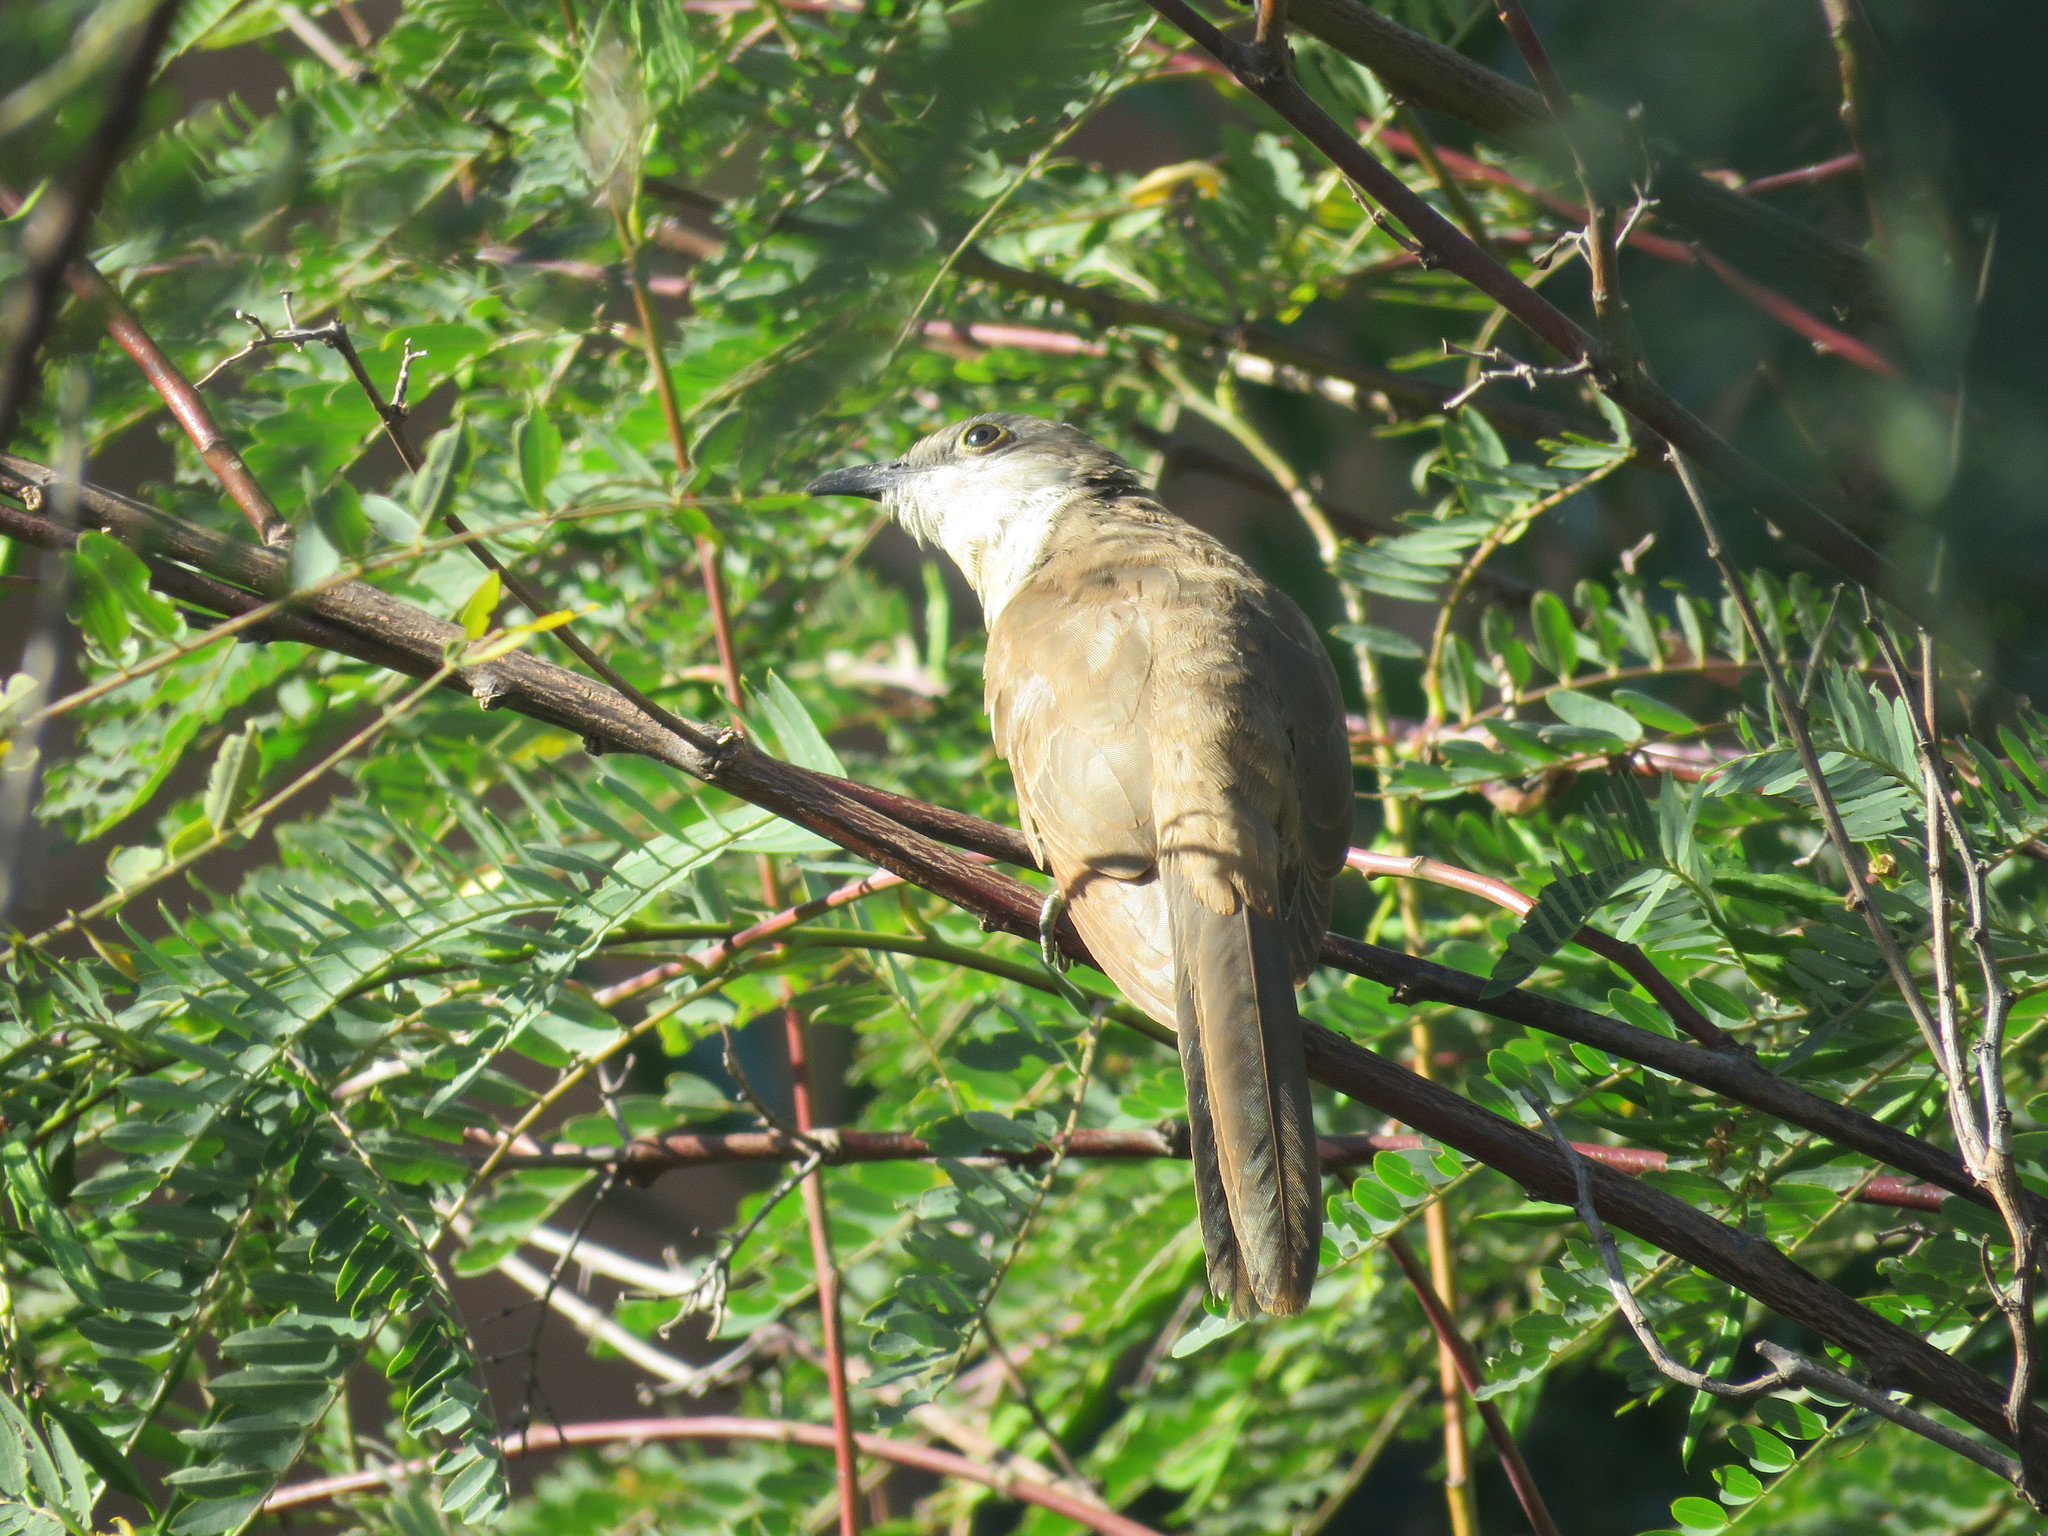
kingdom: Animalia
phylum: Chordata
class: Aves
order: Cuculiformes
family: Cuculidae
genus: Coccyzus
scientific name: Coccyzus melacoryphus
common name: Dark-billed cuckoo
